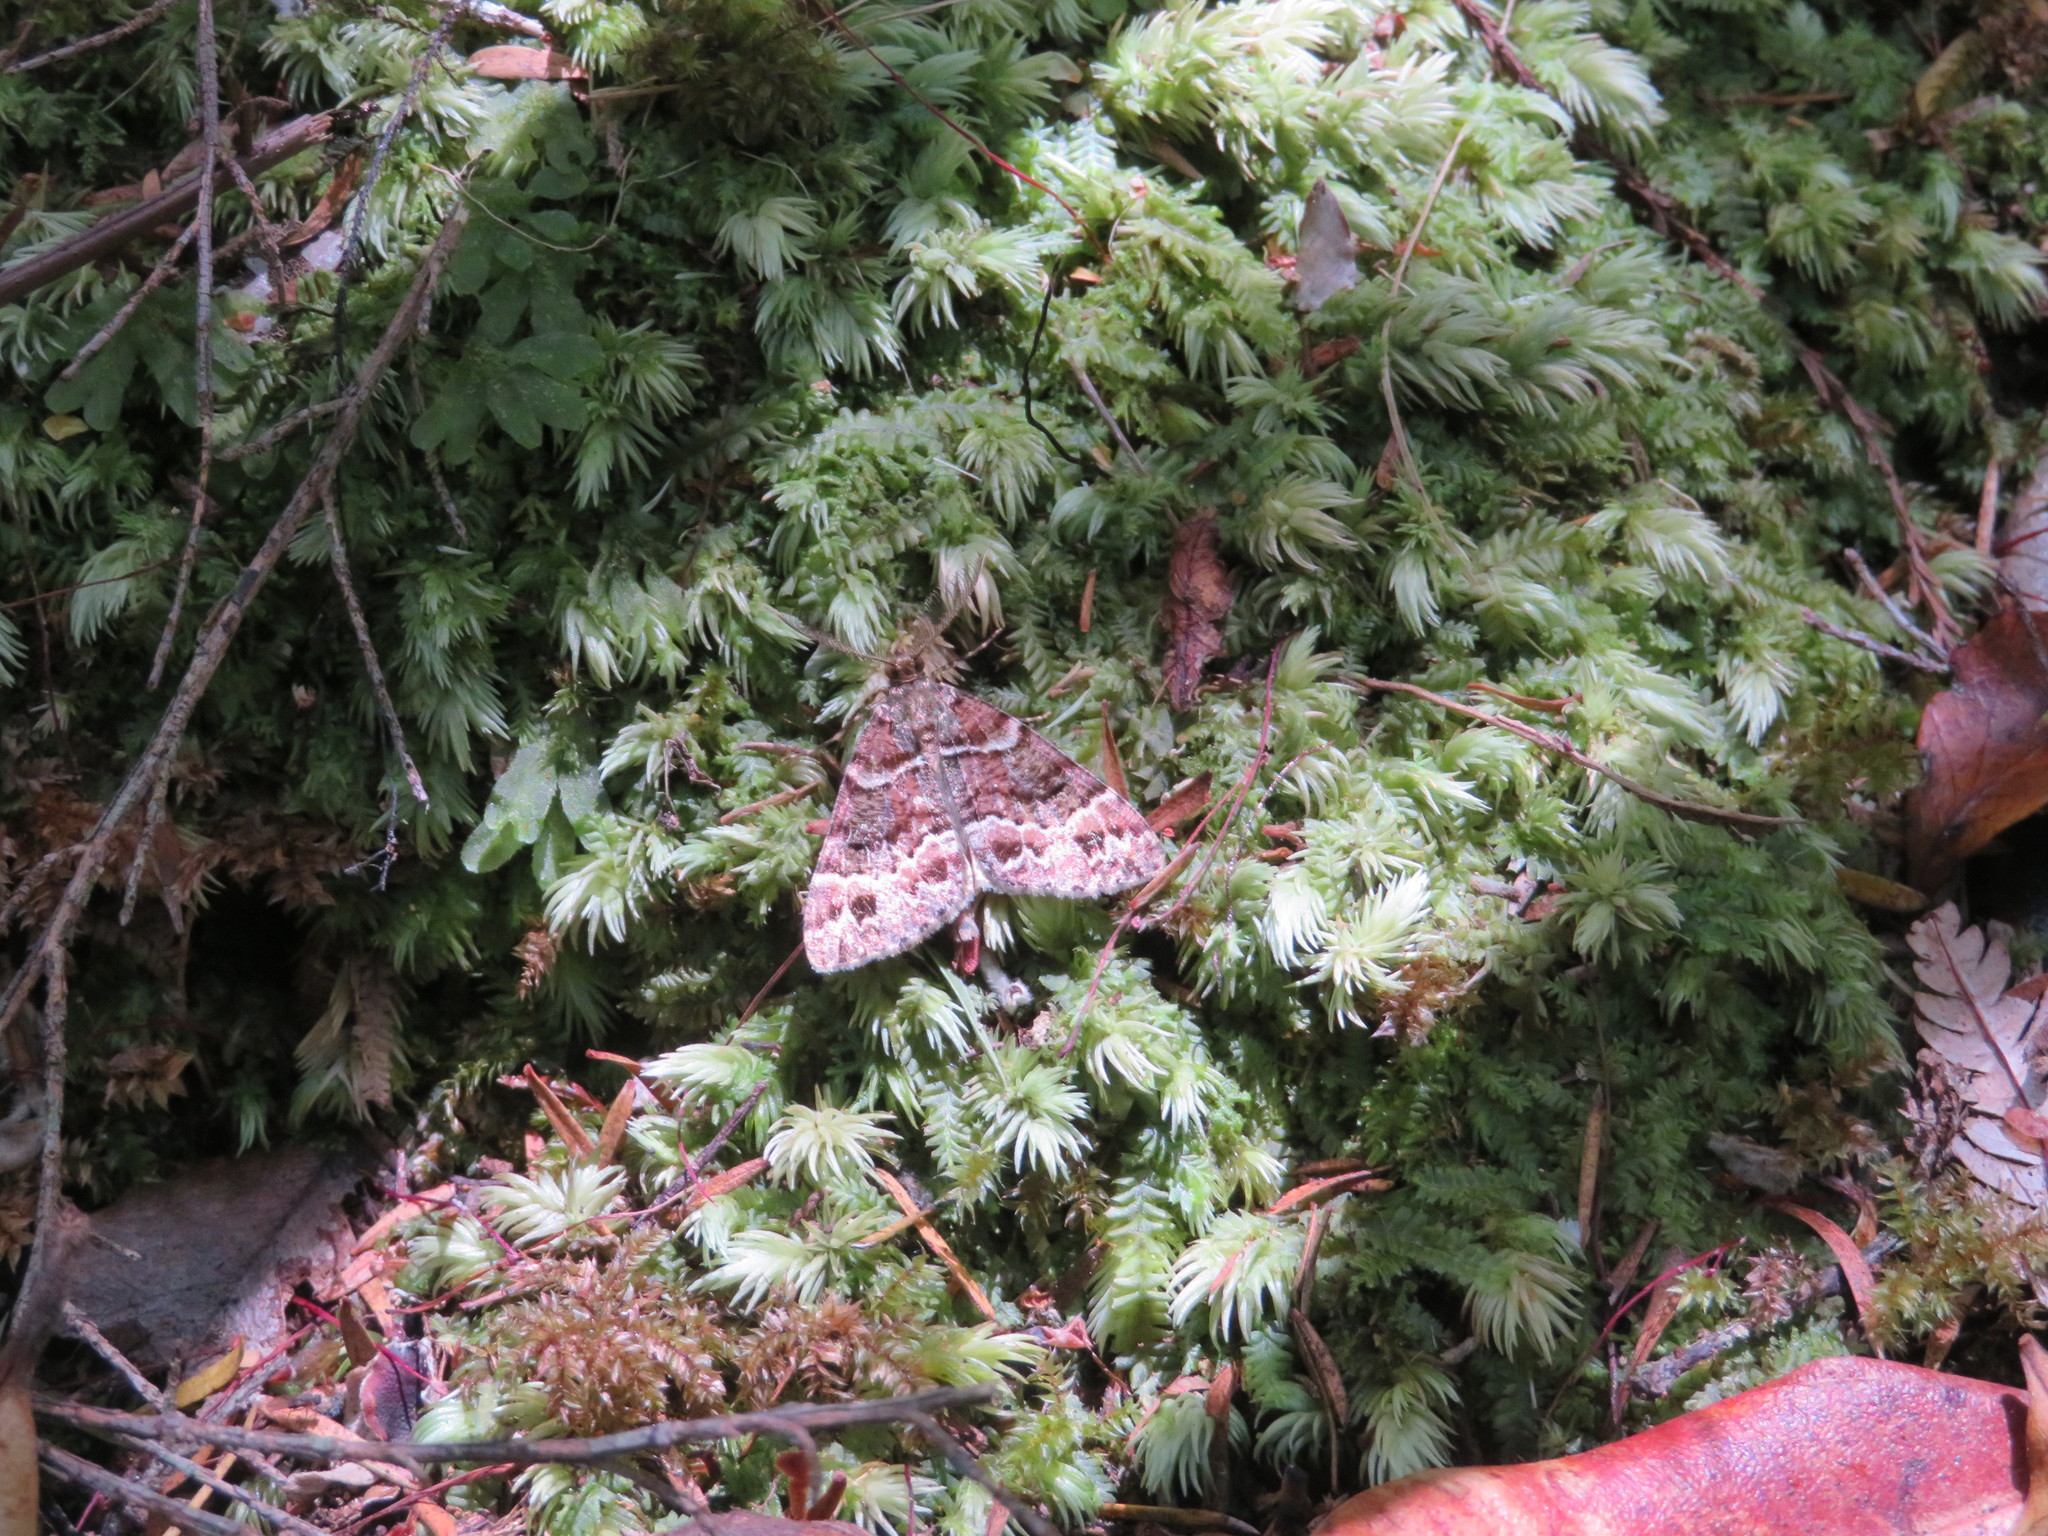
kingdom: Animalia
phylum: Arthropoda
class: Insecta
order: Lepidoptera
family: Geometridae
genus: Pseudocoremia
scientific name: Pseudocoremia productata
